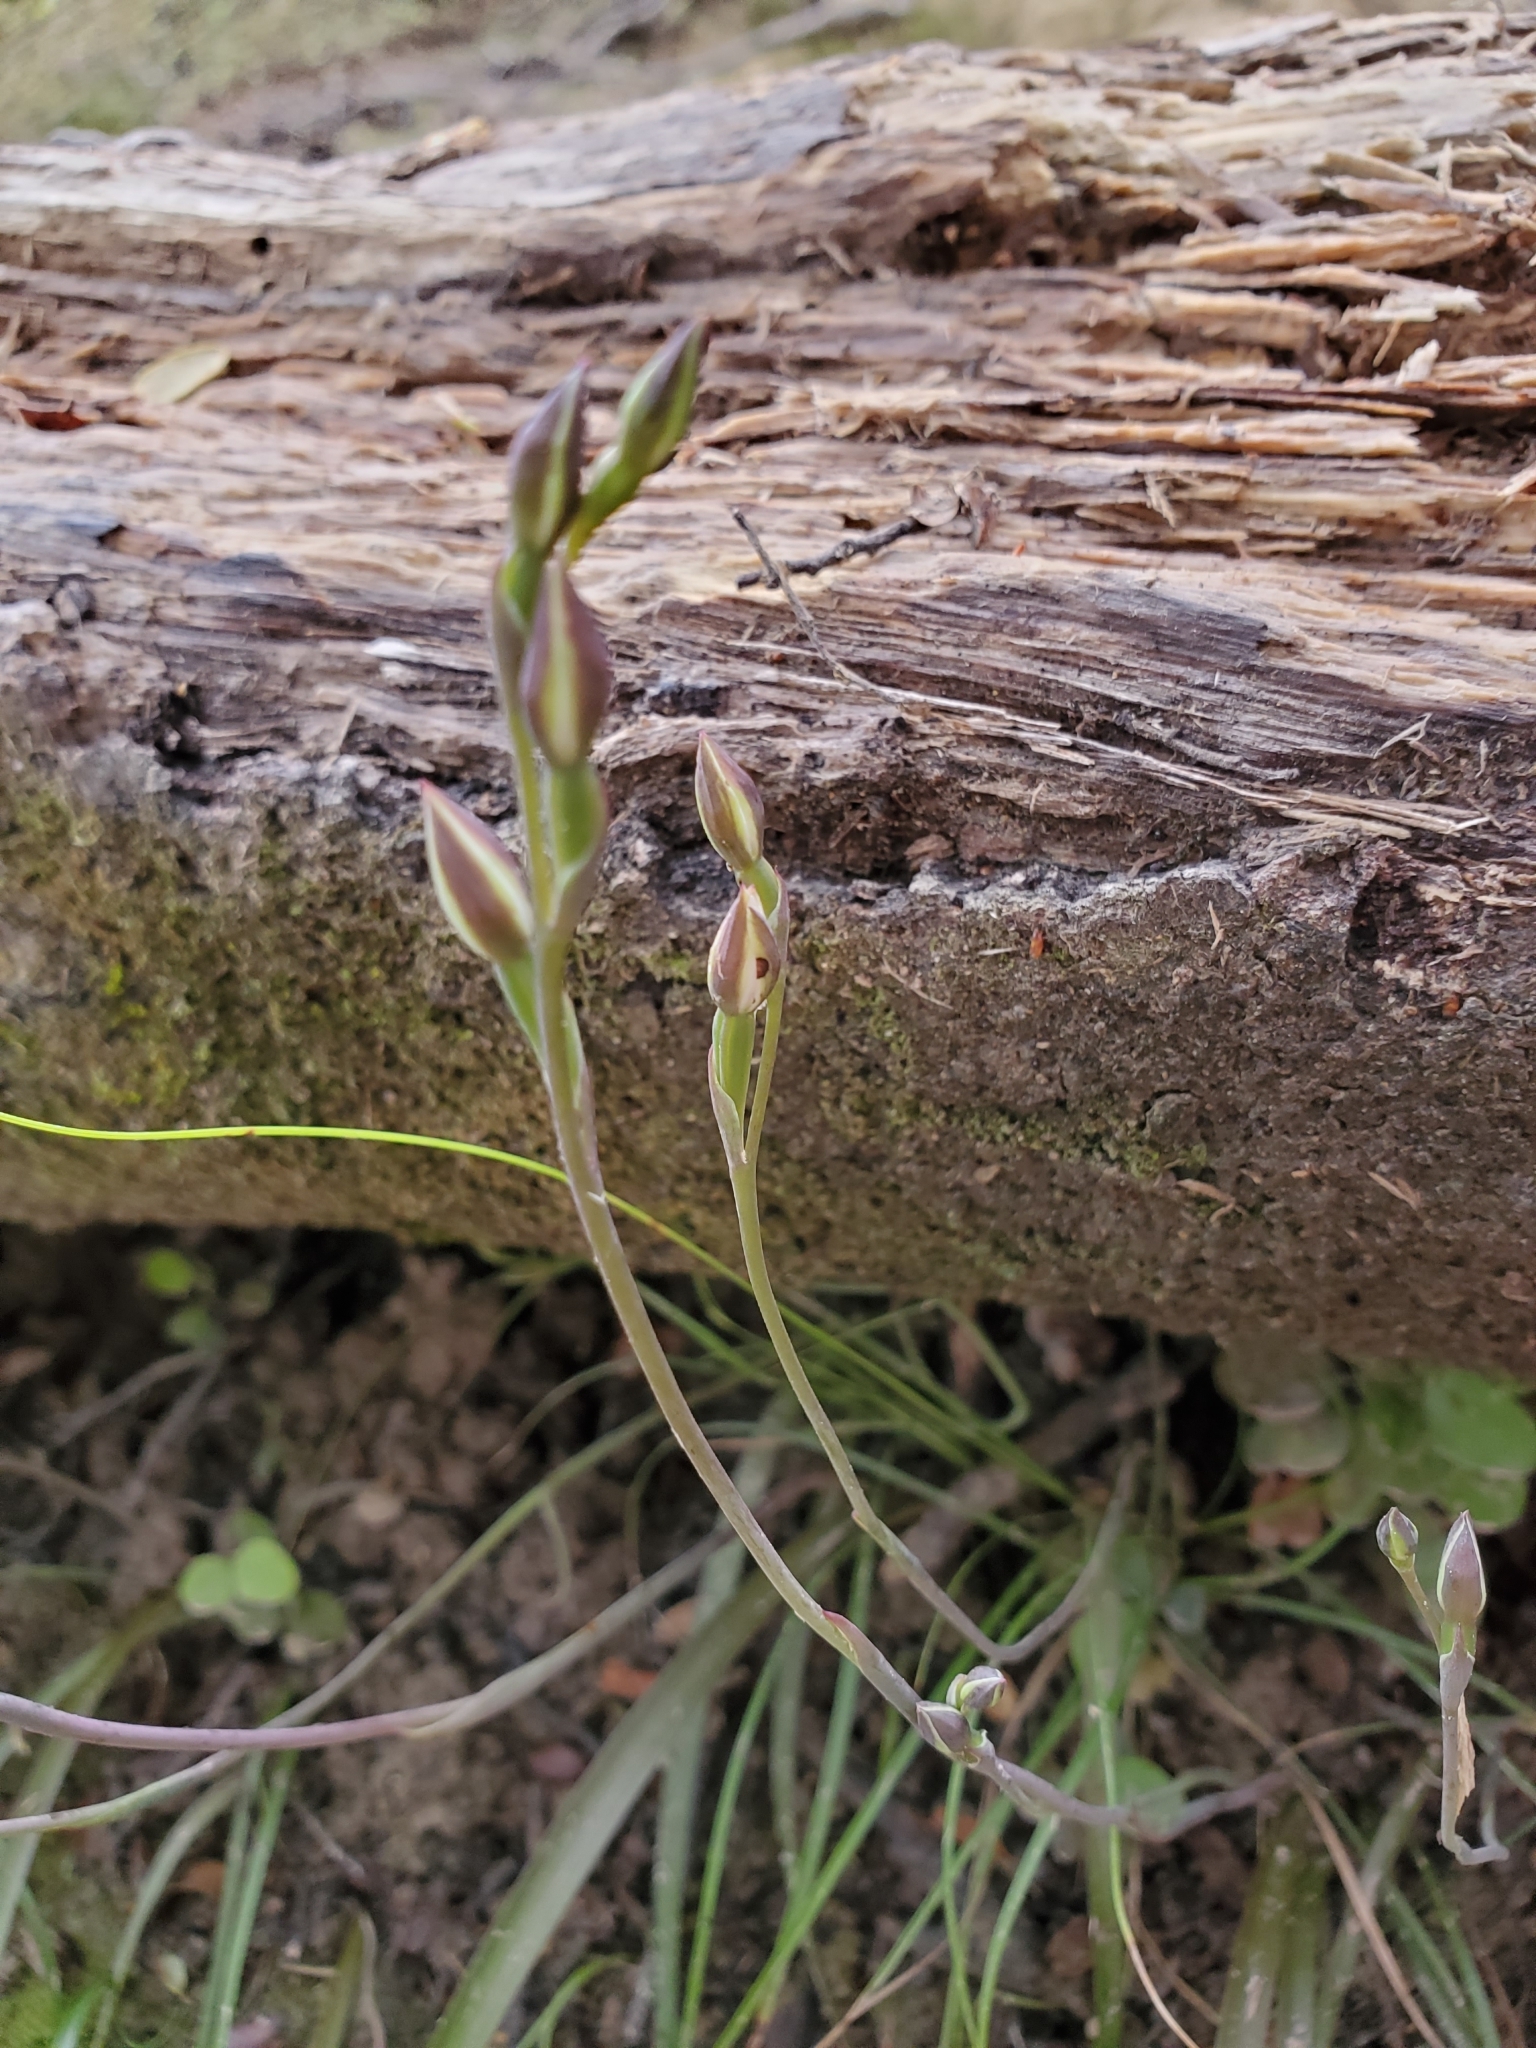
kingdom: Plantae
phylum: Tracheophyta
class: Liliopsida
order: Asparagales
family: Orchidaceae
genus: Thelymitra
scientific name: Thelymitra longifolia
